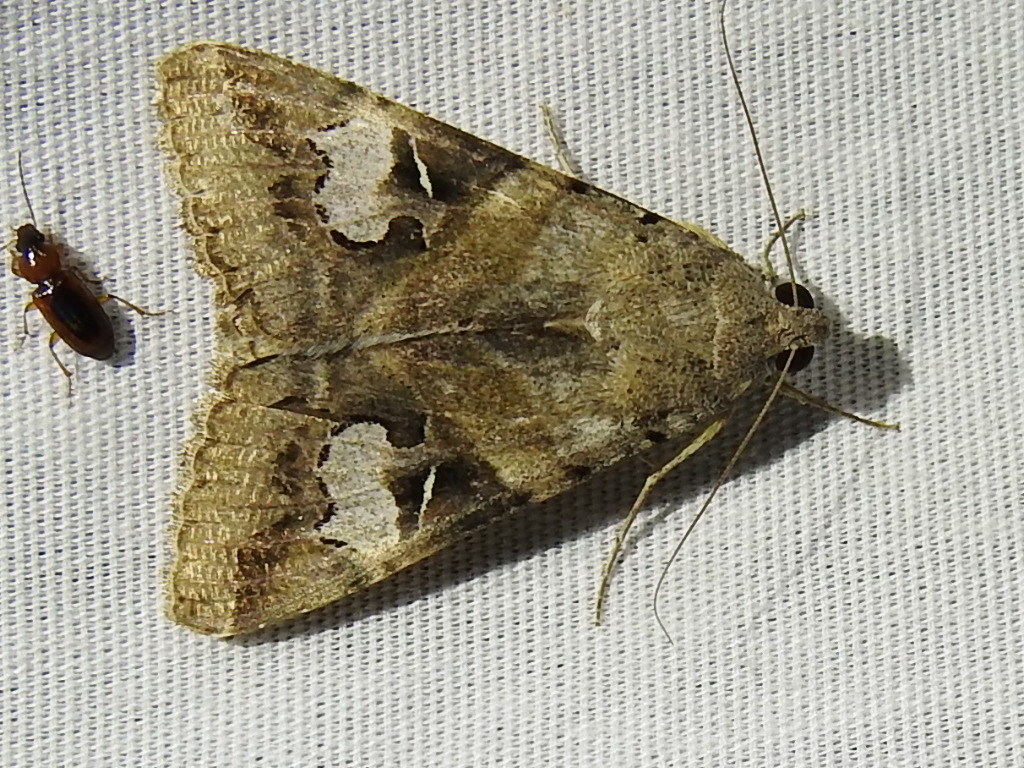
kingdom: Animalia
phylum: Arthropoda
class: Insecta
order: Lepidoptera
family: Erebidae
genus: Melipotis
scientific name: Melipotis indomita
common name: Moth
